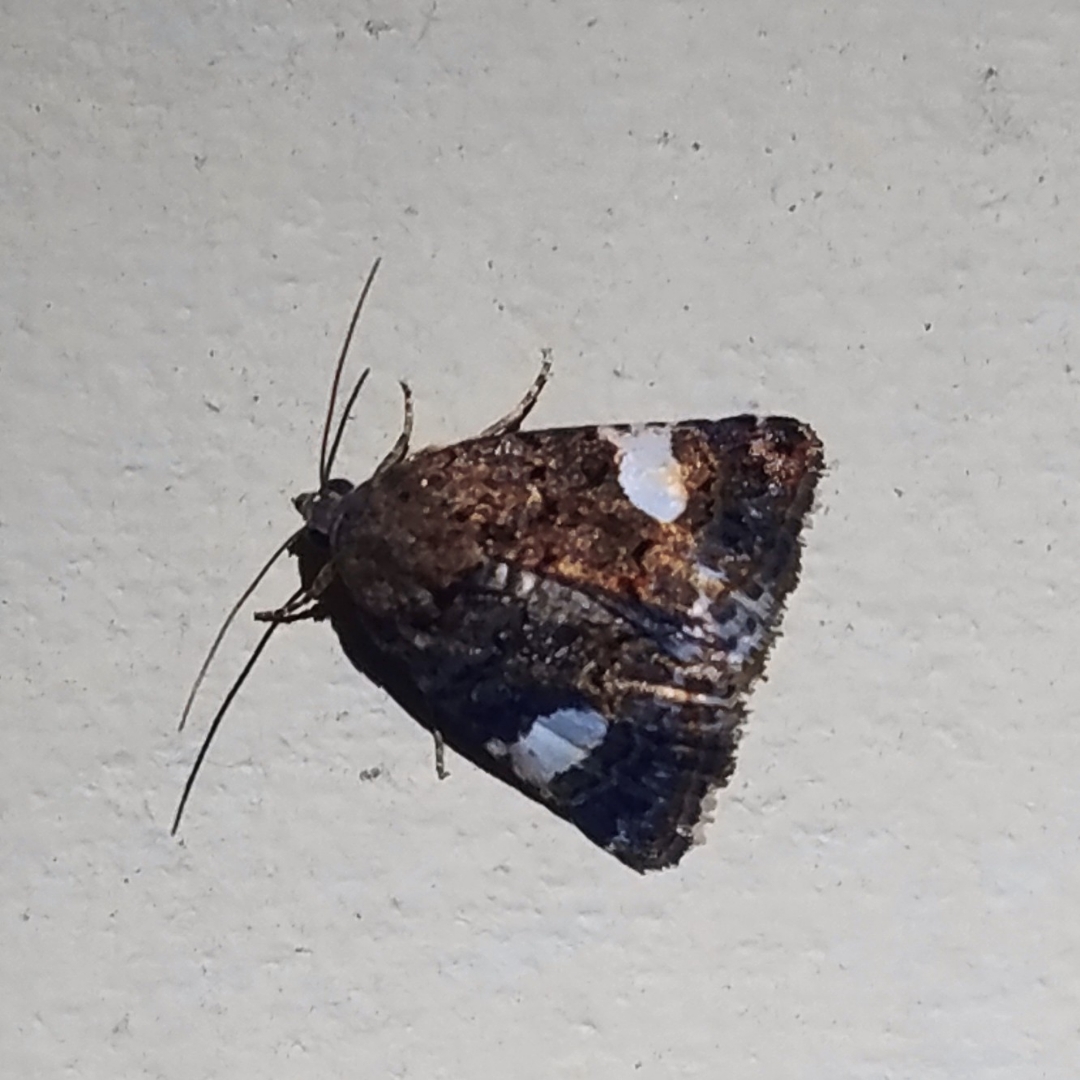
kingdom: Animalia
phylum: Arthropoda
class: Insecta
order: Lepidoptera
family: Erebidae
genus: Tyta
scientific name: Tyta luctuosa
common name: Four-spotted
